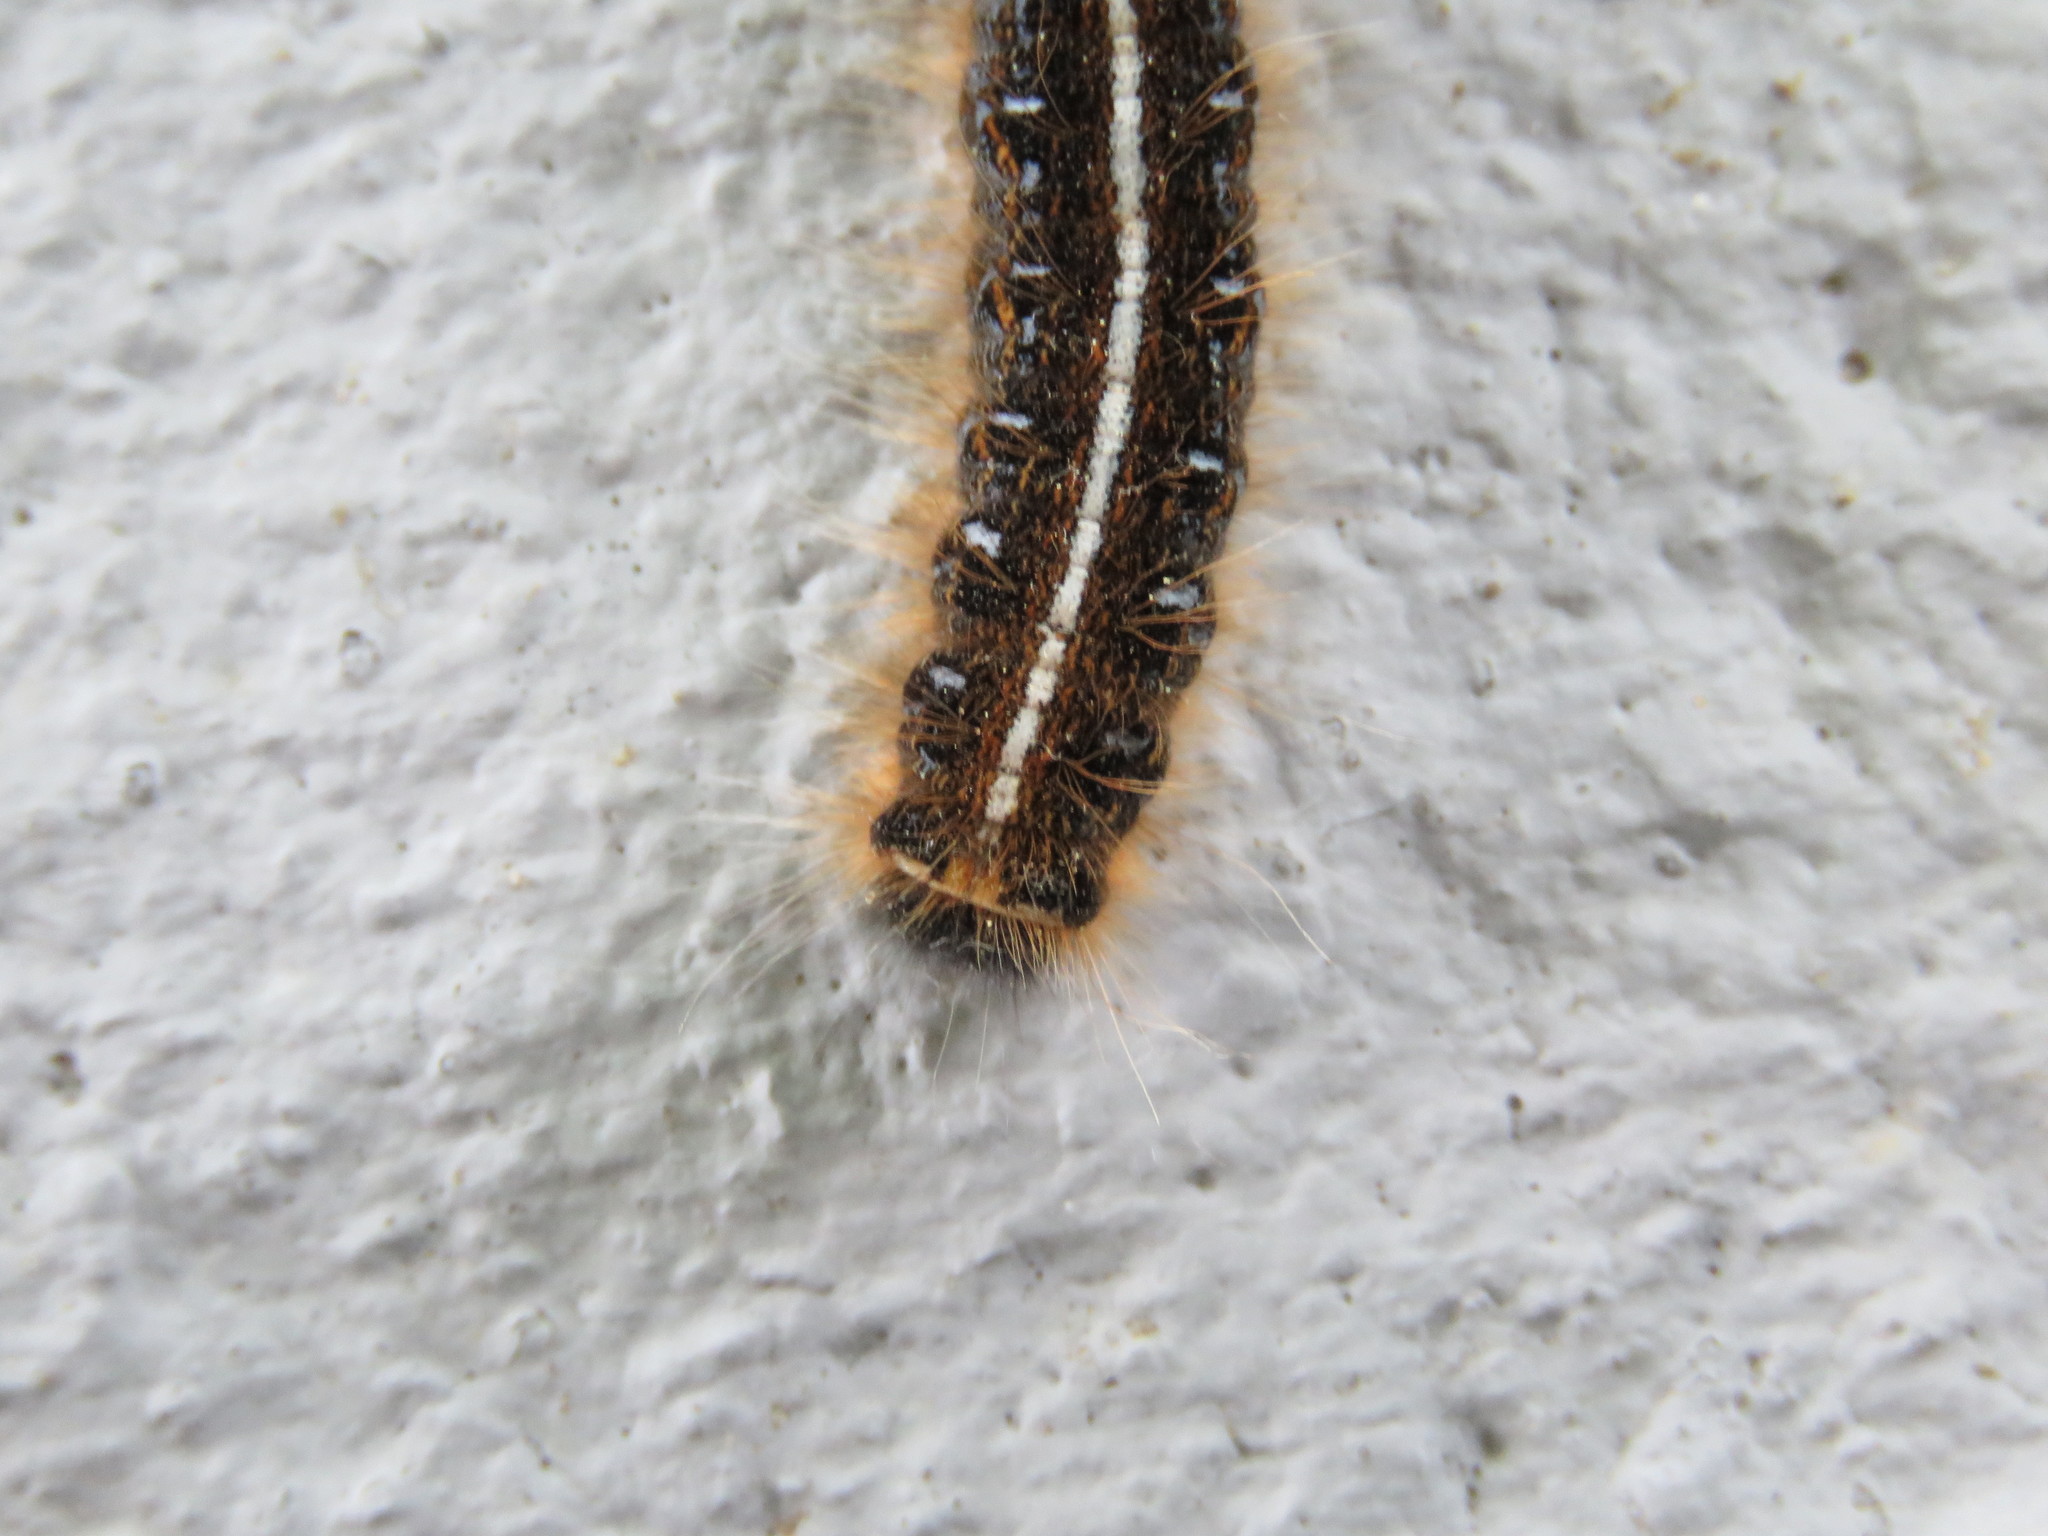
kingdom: Animalia
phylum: Arthropoda
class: Insecta
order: Lepidoptera
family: Lasiocampidae
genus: Malacosoma
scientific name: Malacosoma americana
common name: Eastern tent caterpillar moth
